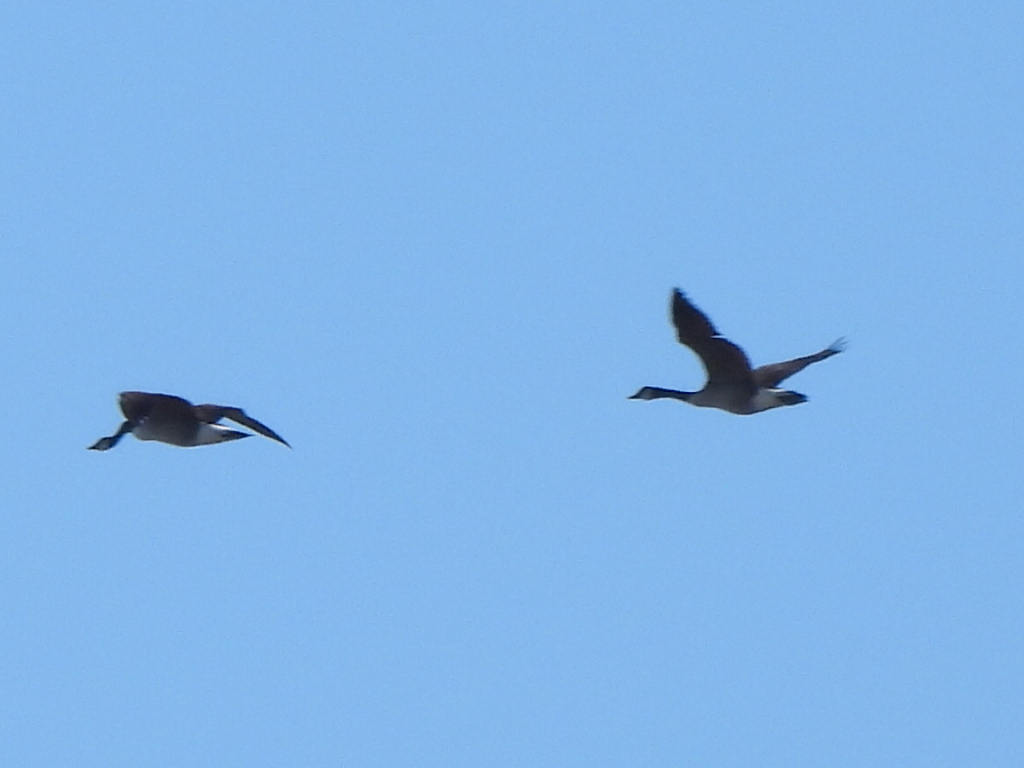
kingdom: Animalia
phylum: Chordata
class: Aves
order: Anseriformes
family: Anatidae
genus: Branta
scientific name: Branta canadensis
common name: Canada goose
